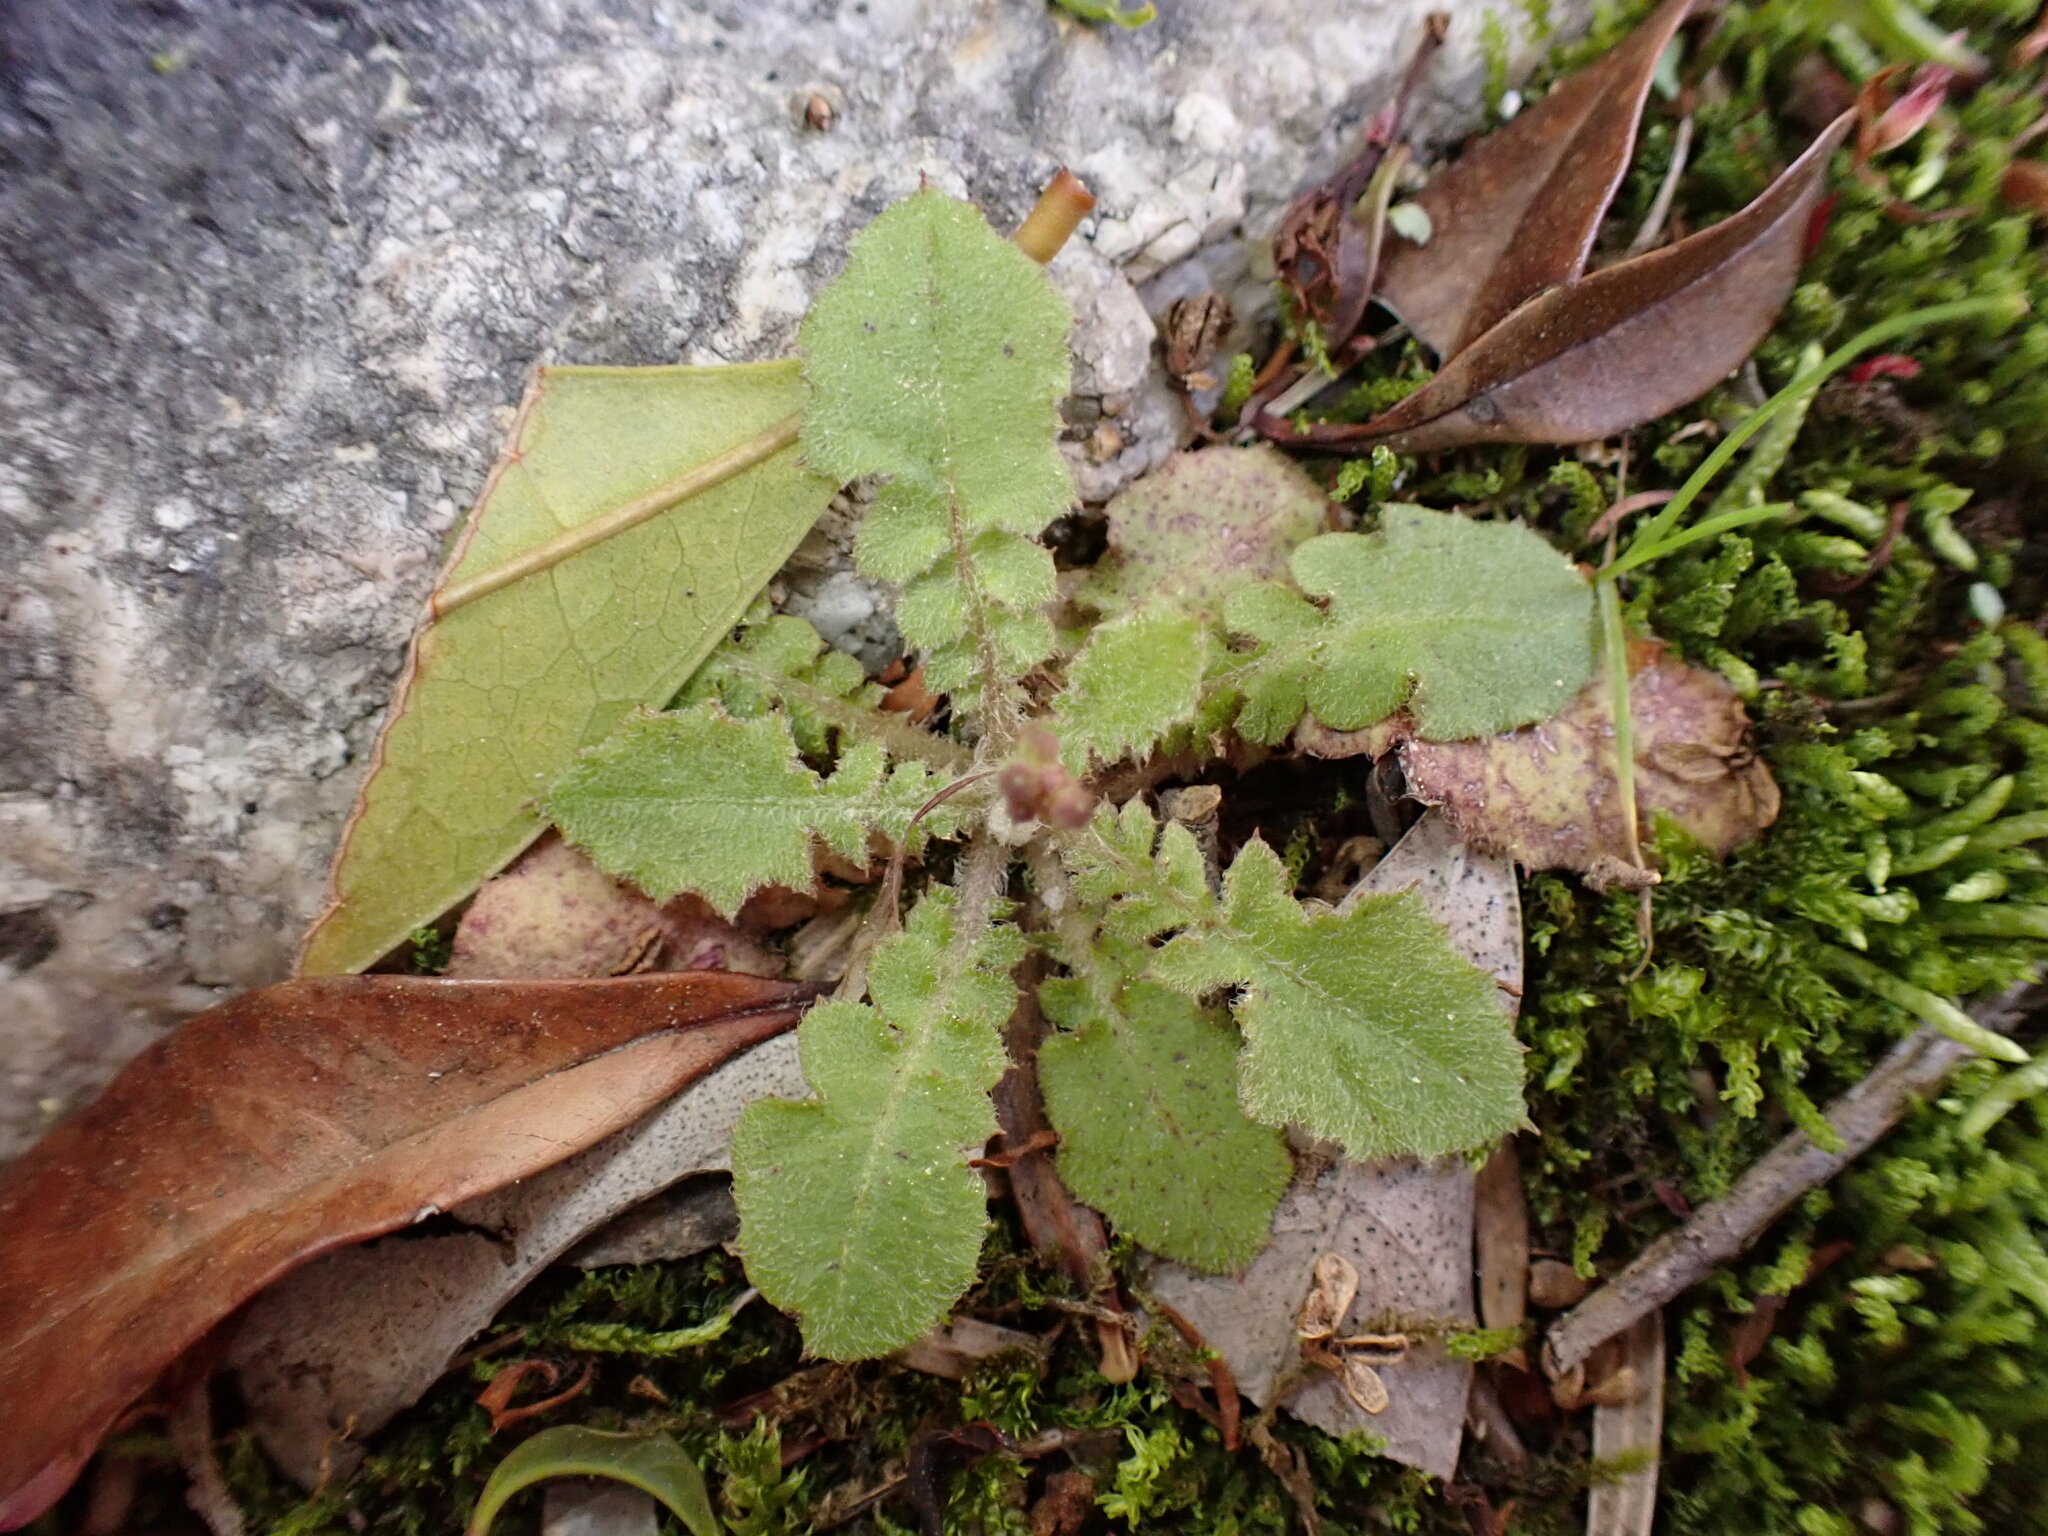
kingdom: Plantae
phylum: Tracheophyta
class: Magnoliopsida
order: Asterales
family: Asteraceae
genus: Youngia
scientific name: Youngia japonica
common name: Oriental false hawksbeard
